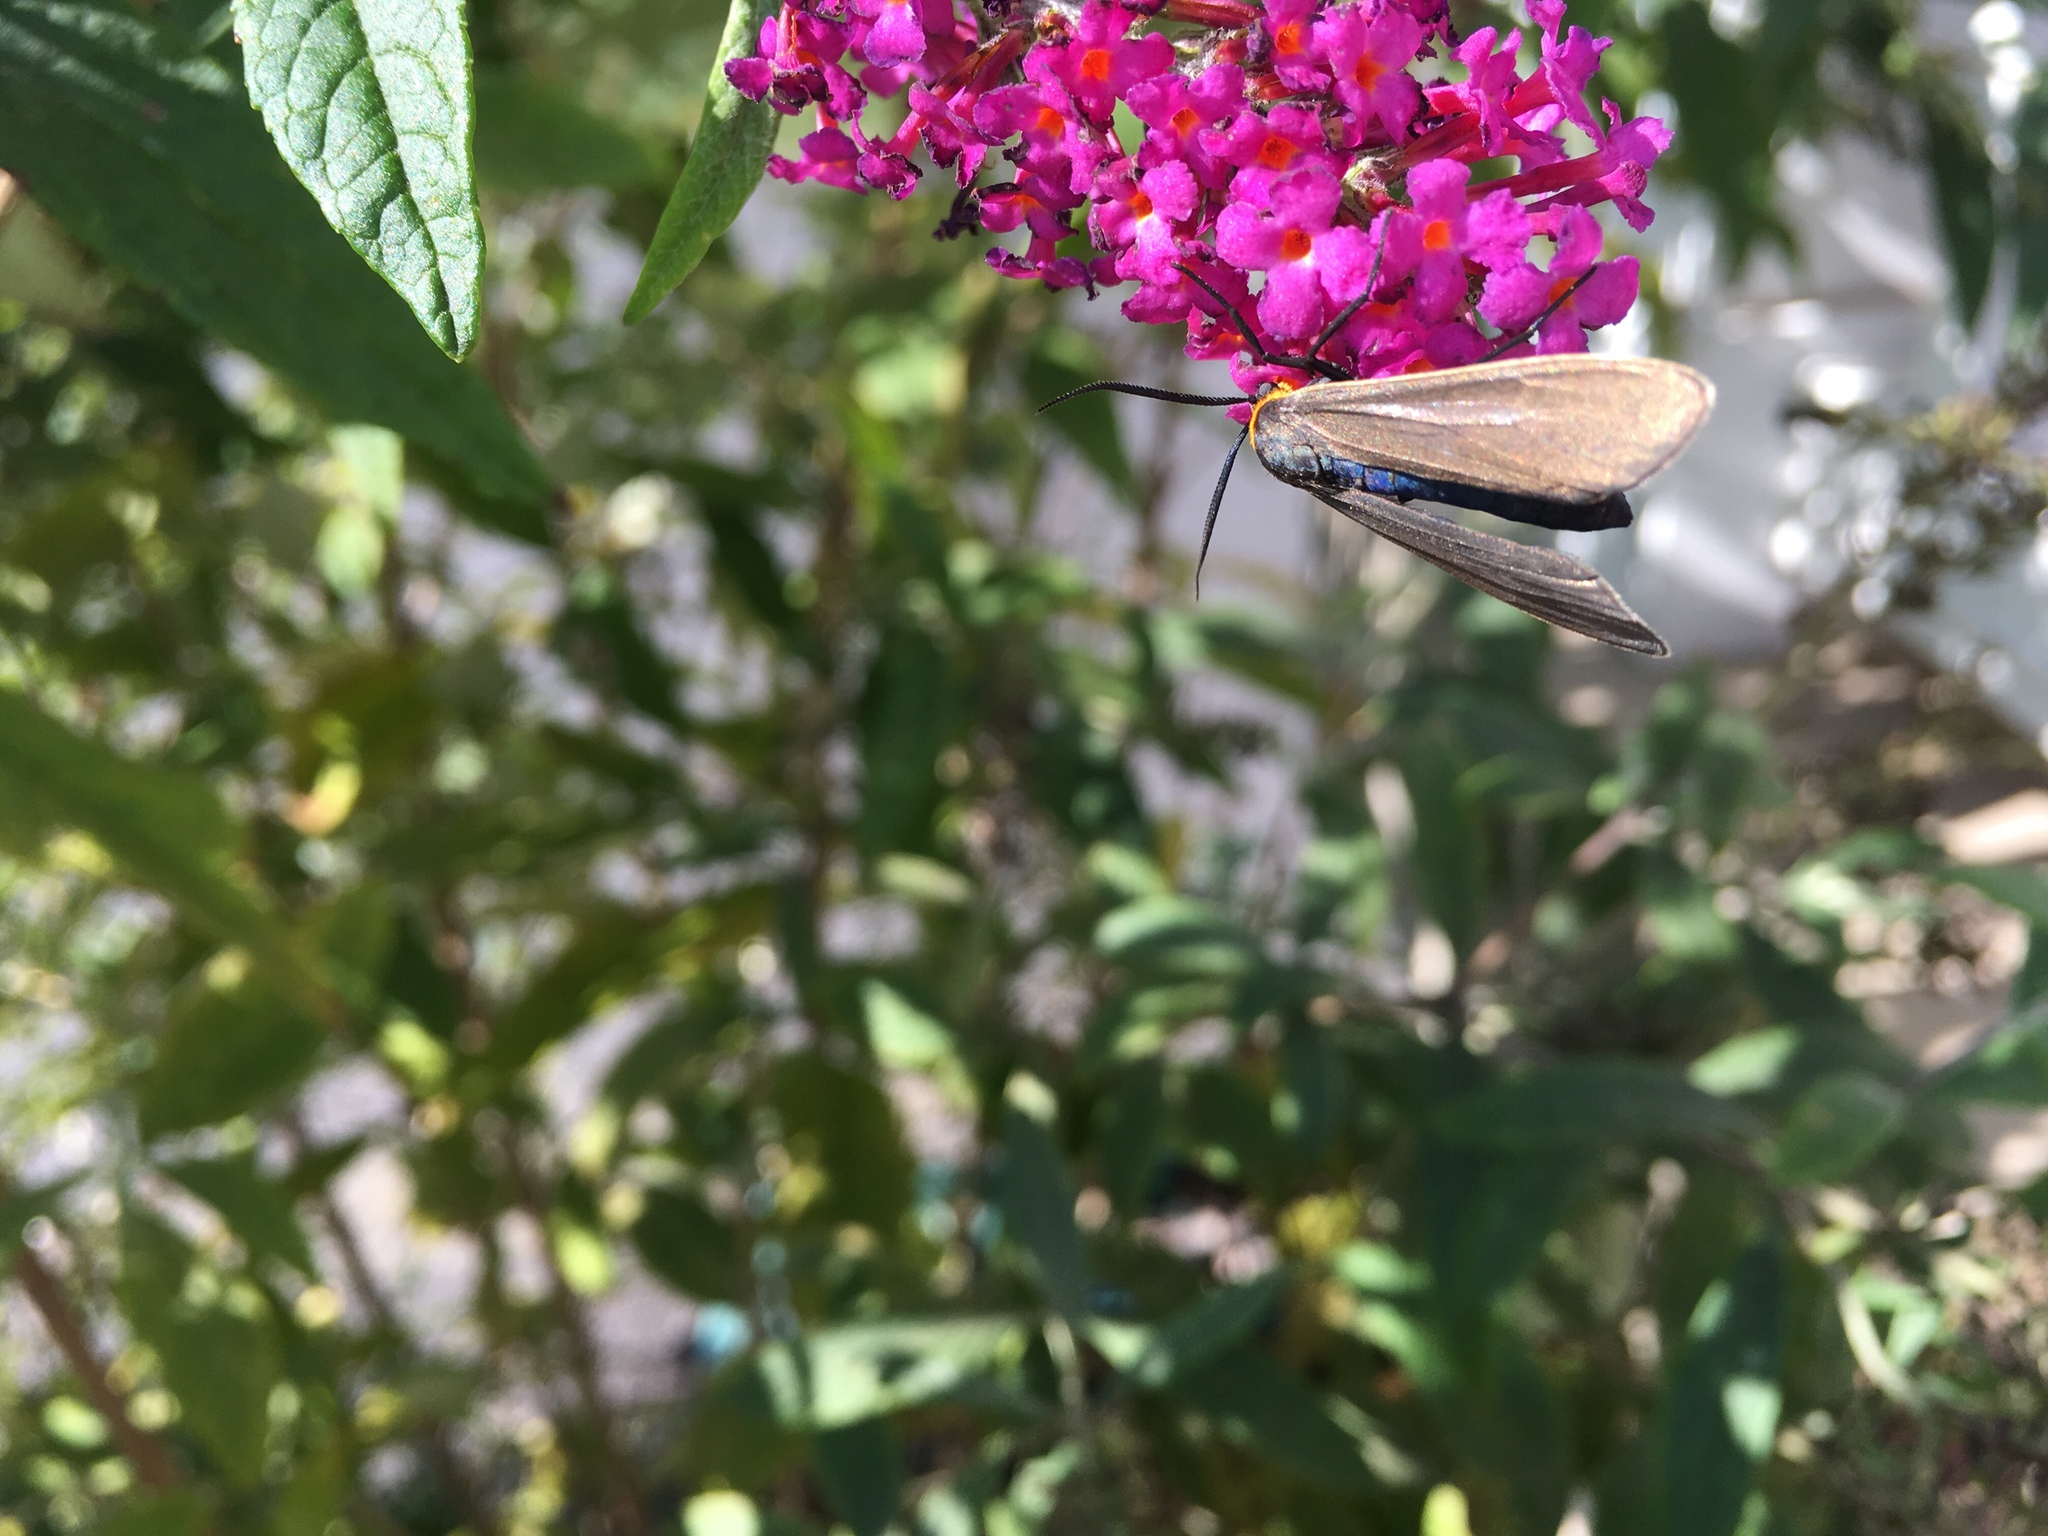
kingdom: Animalia
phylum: Arthropoda
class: Insecta
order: Lepidoptera
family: Erebidae
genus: Cisseps
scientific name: Cisseps fulvicollis
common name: Yellow-collared scape moth
